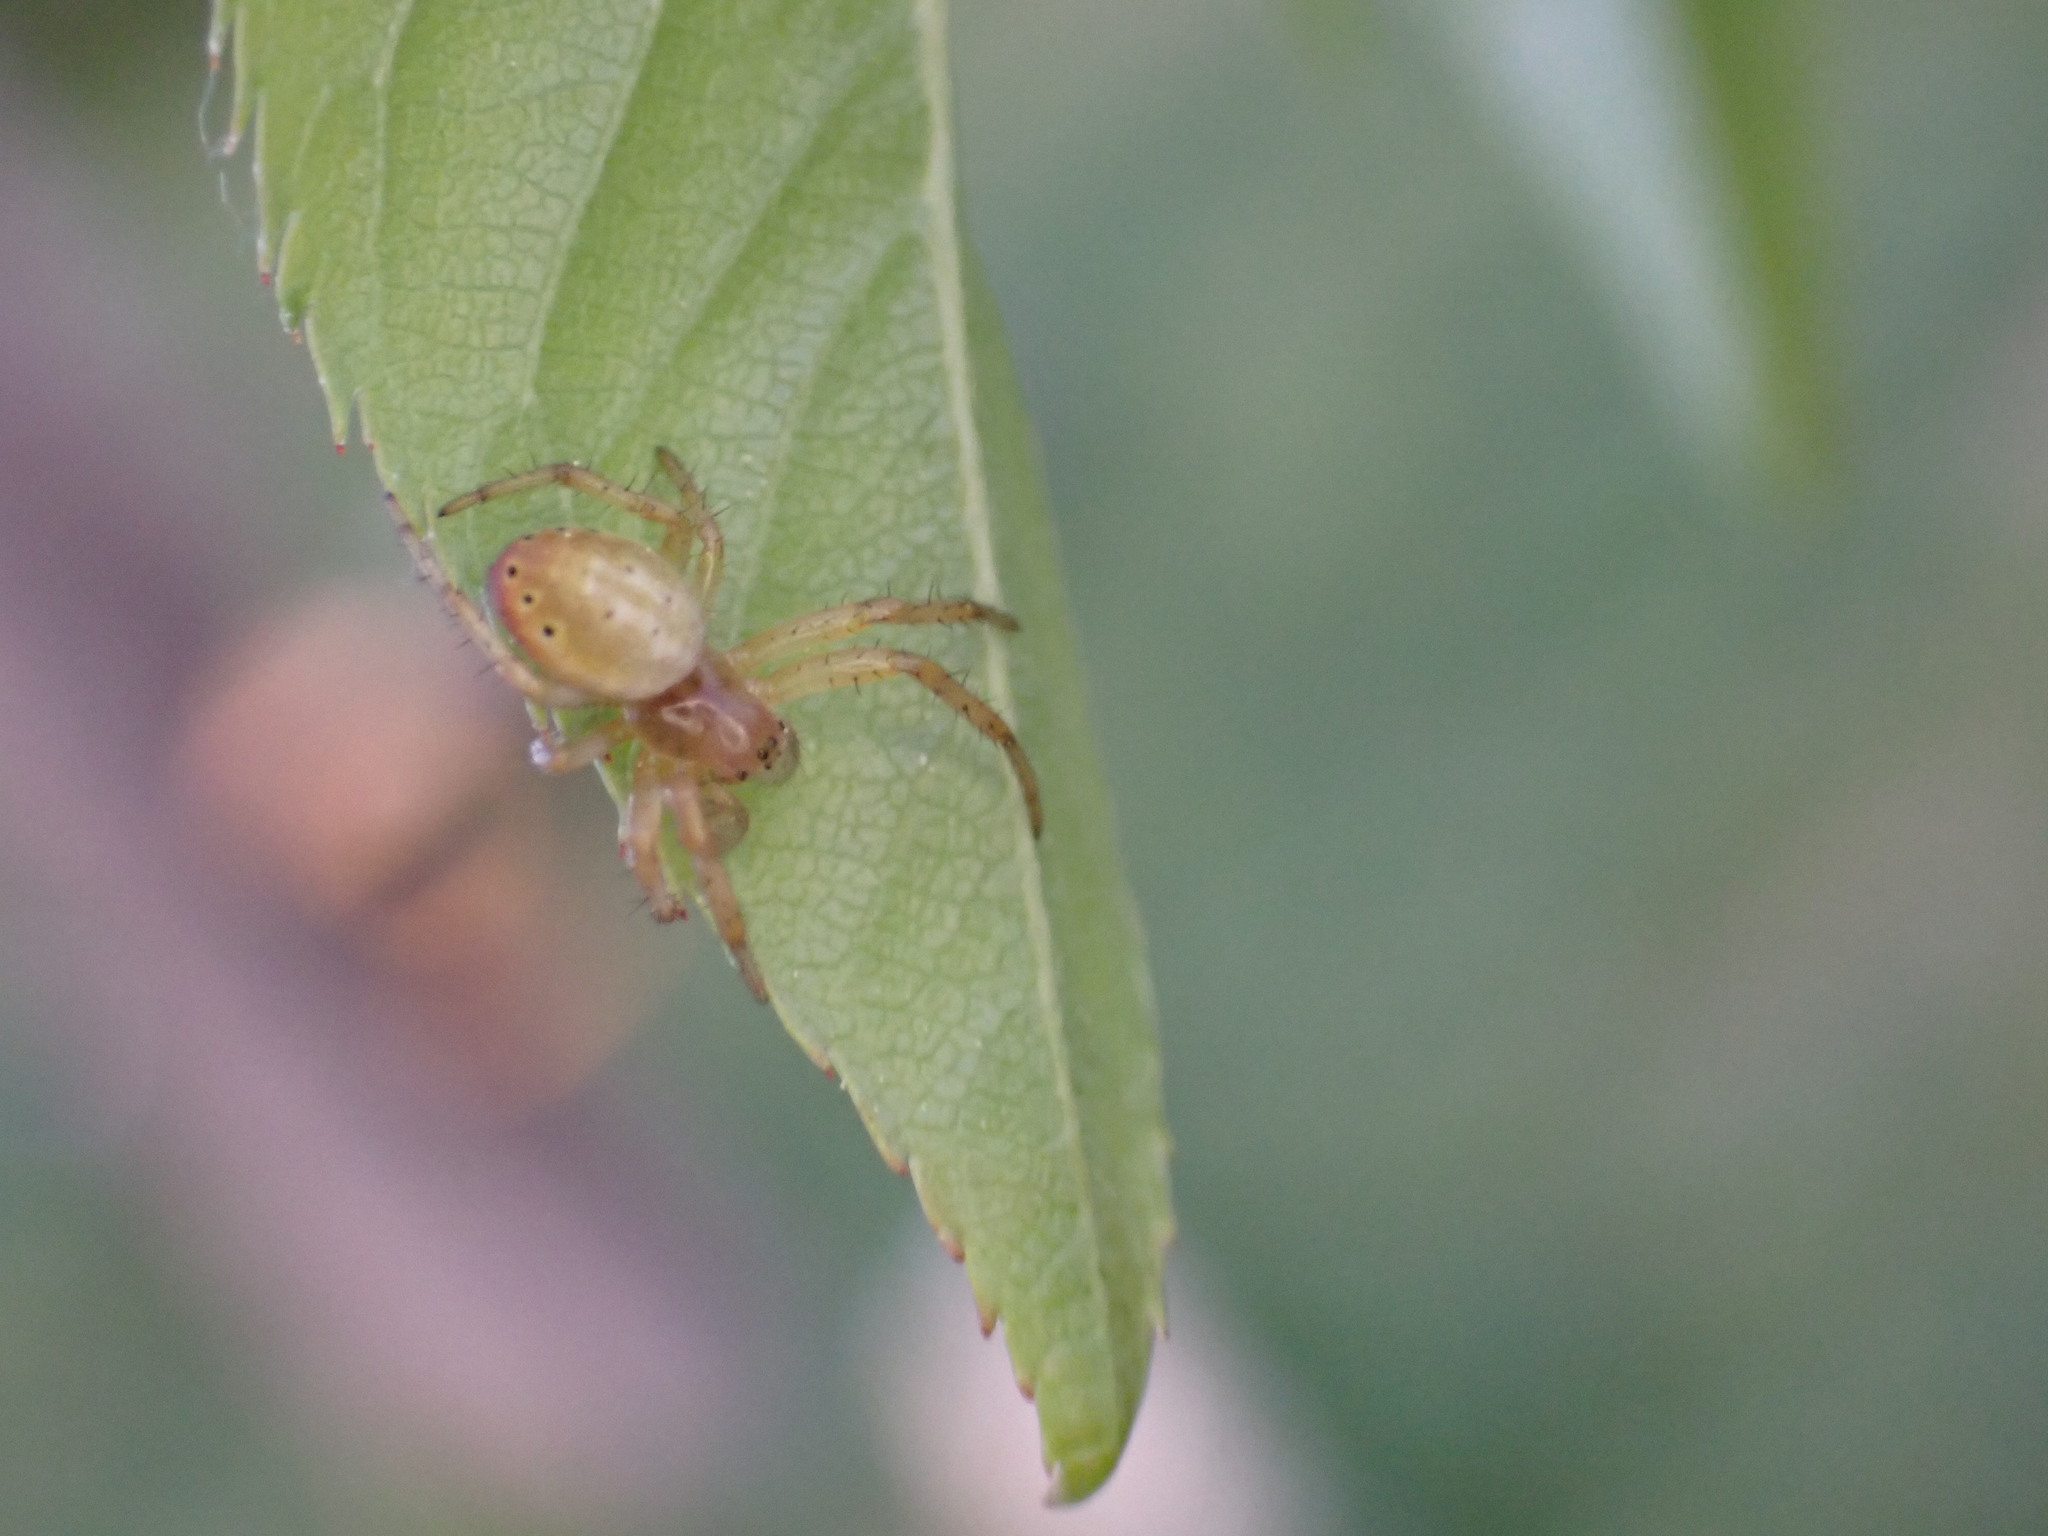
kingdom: Animalia
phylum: Arthropoda
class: Arachnida
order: Araneae
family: Araneidae
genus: Araniella
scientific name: Araniella displicata
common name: Sixspotted orb weaver
